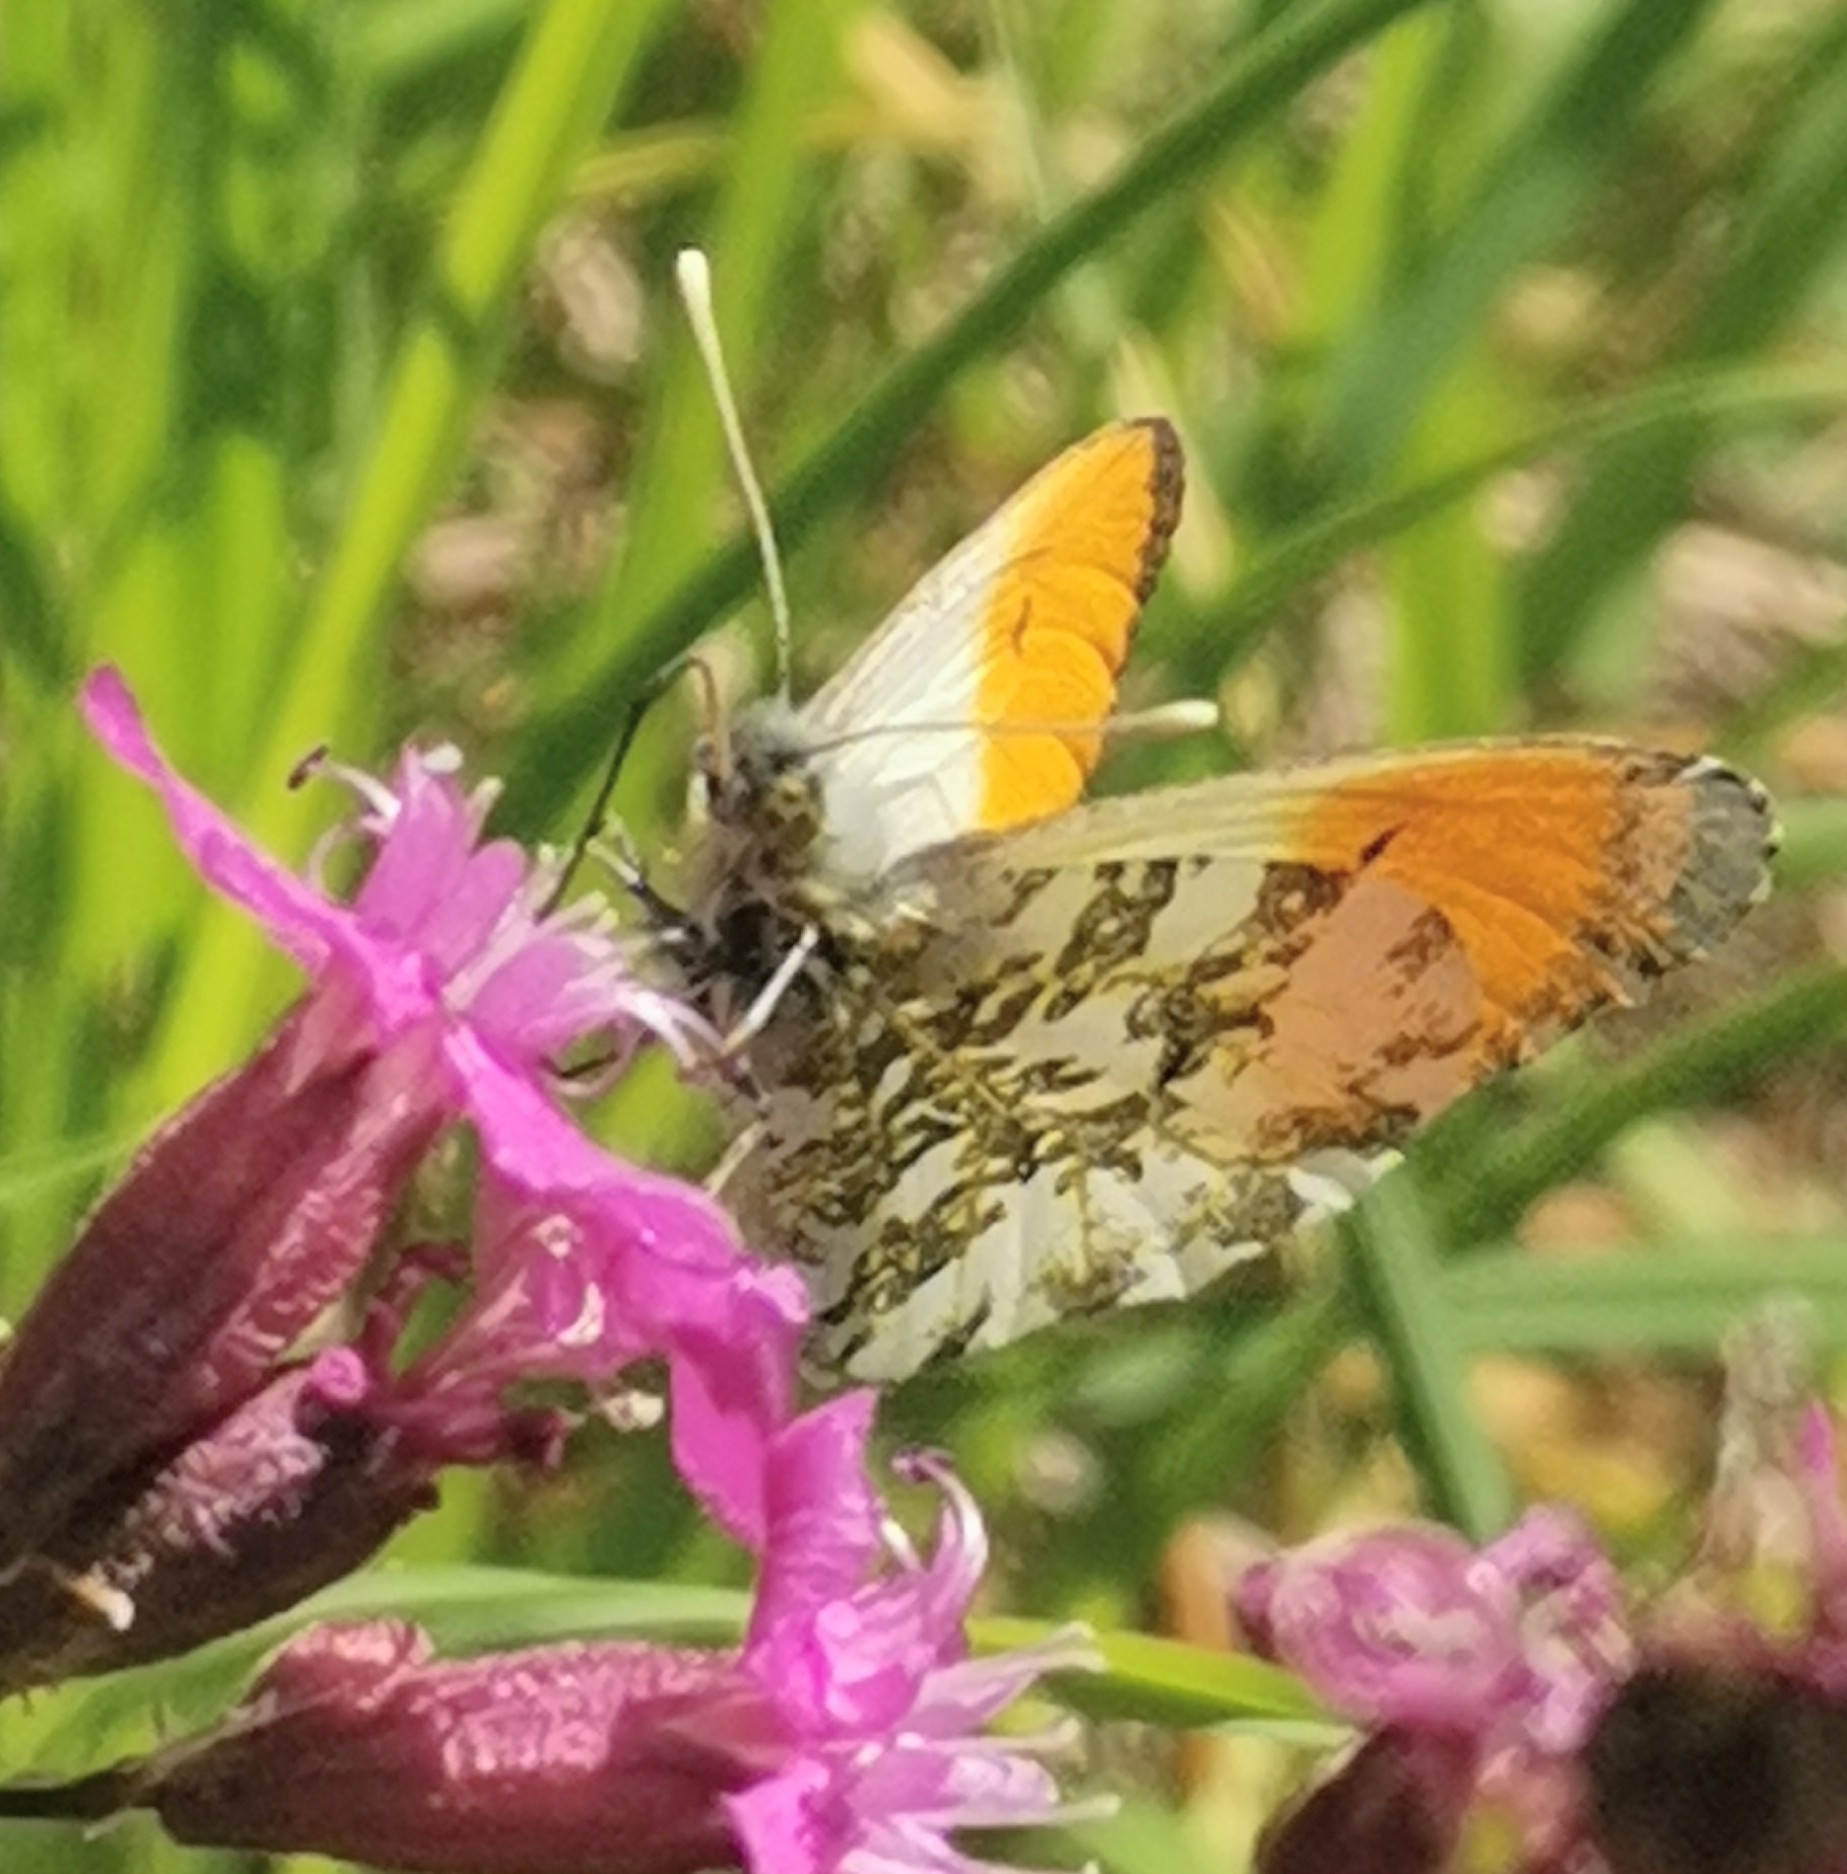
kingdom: Animalia
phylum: Arthropoda
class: Insecta
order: Lepidoptera
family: Pieridae
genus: Anthocharis
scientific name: Anthocharis cardamines
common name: Orange-tip
